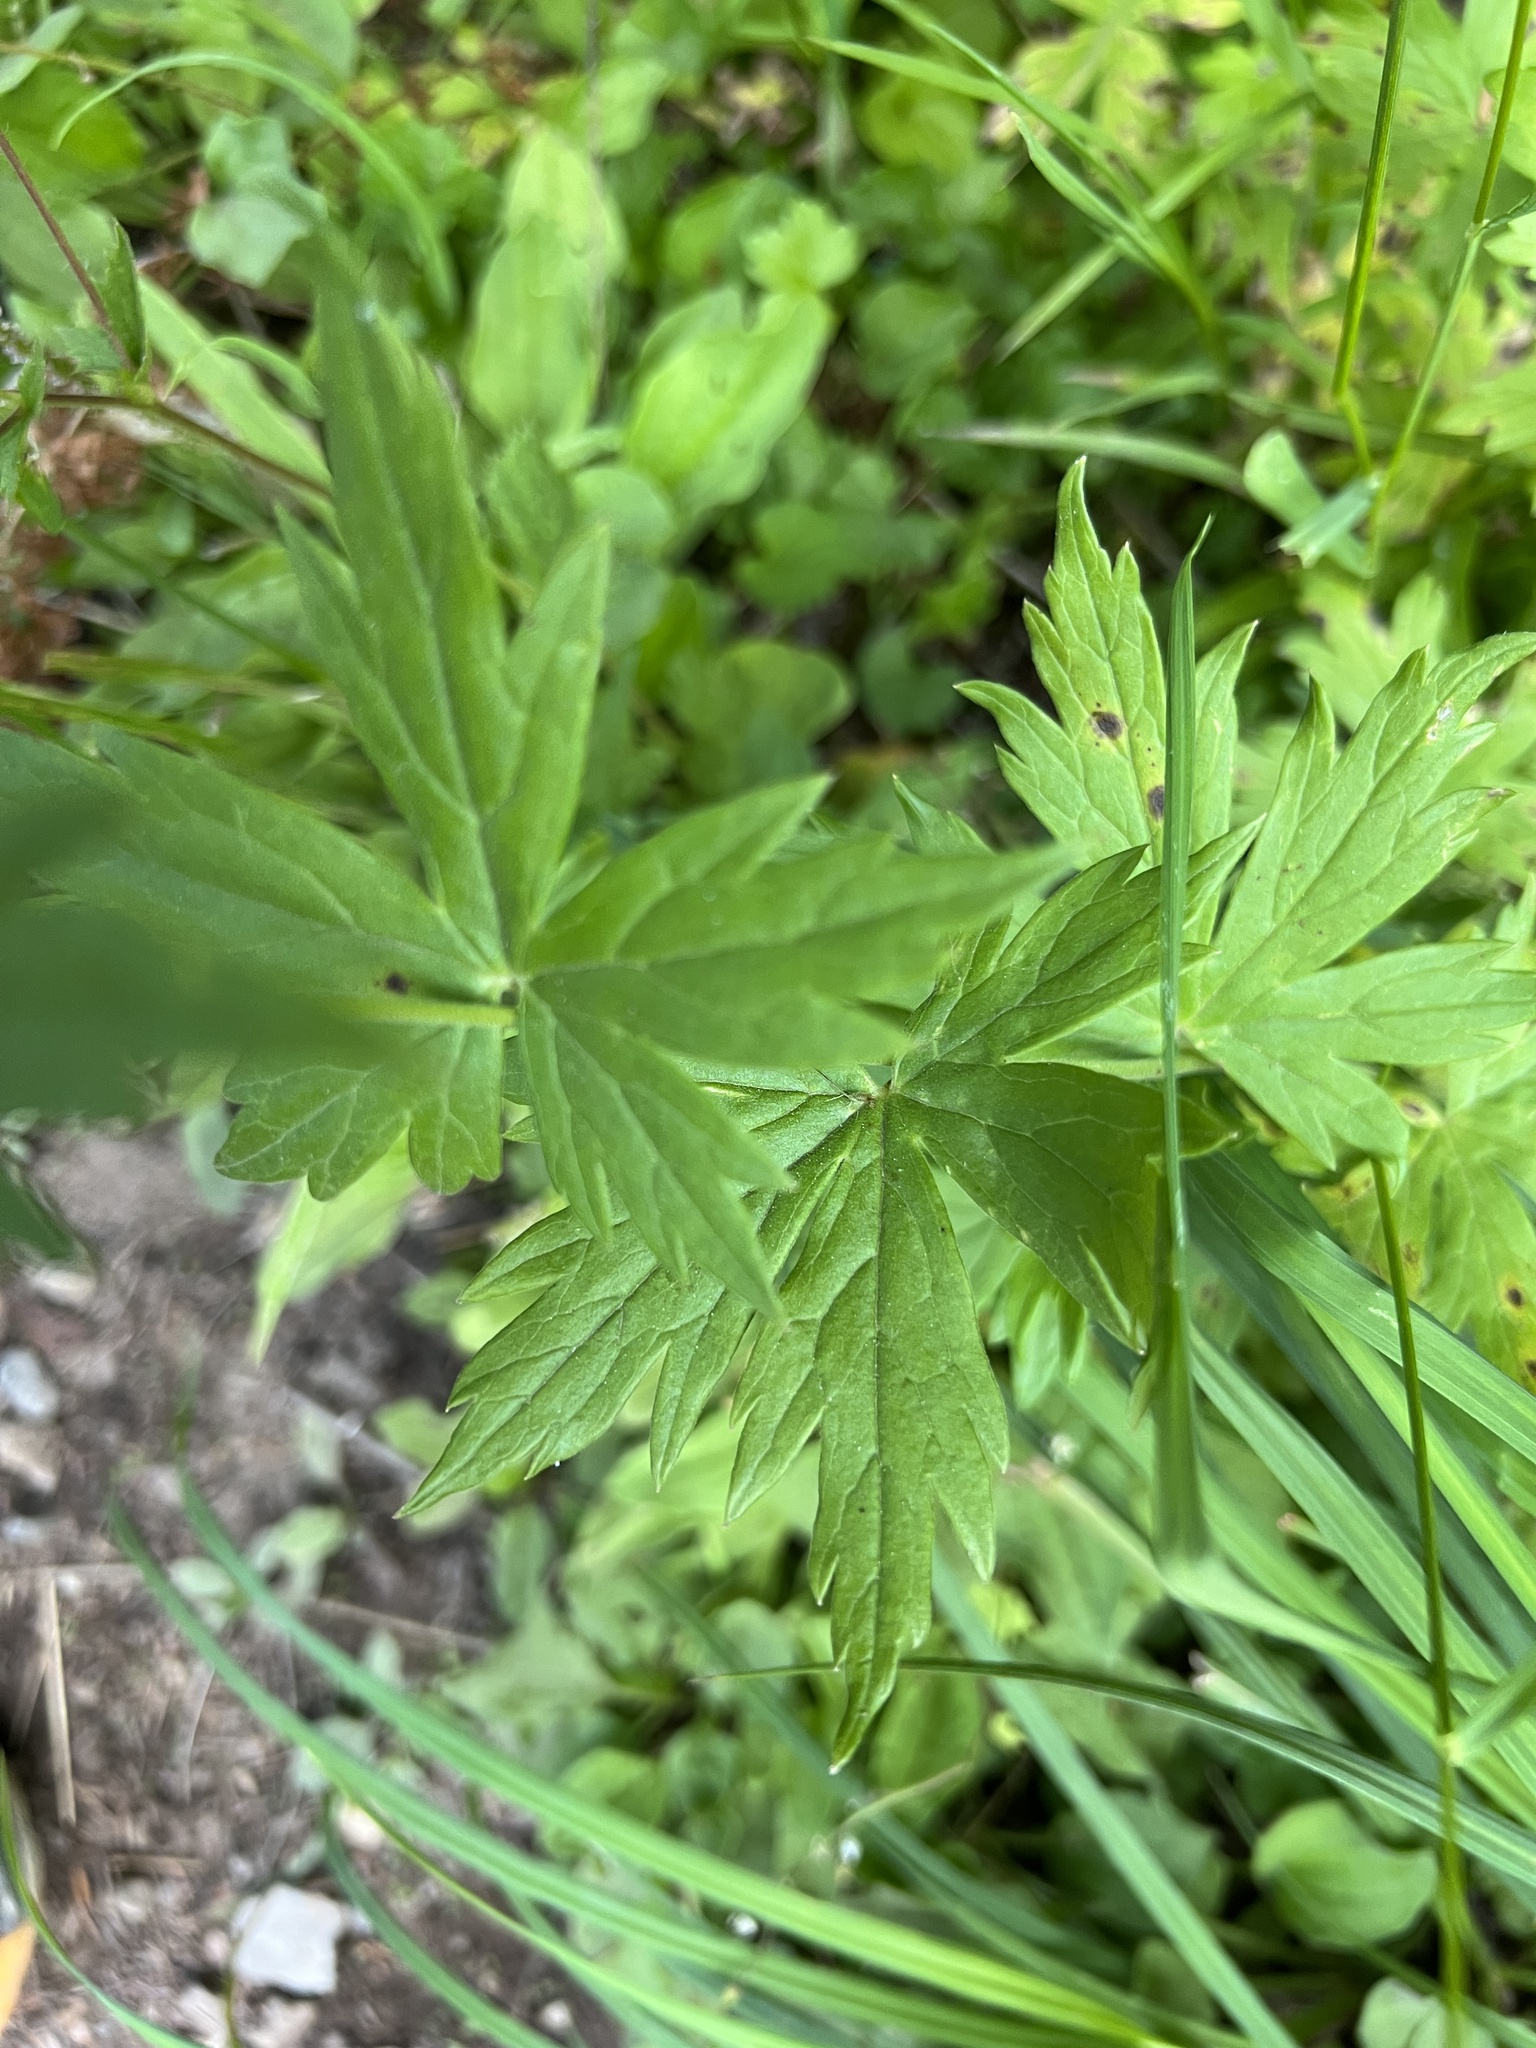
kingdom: Plantae
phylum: Tracheophyta
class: Magnoliopsida
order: Ranunculales
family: Ranunculaceae
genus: Aconitum
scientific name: Aconitum columbianum
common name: Columbia aconite
